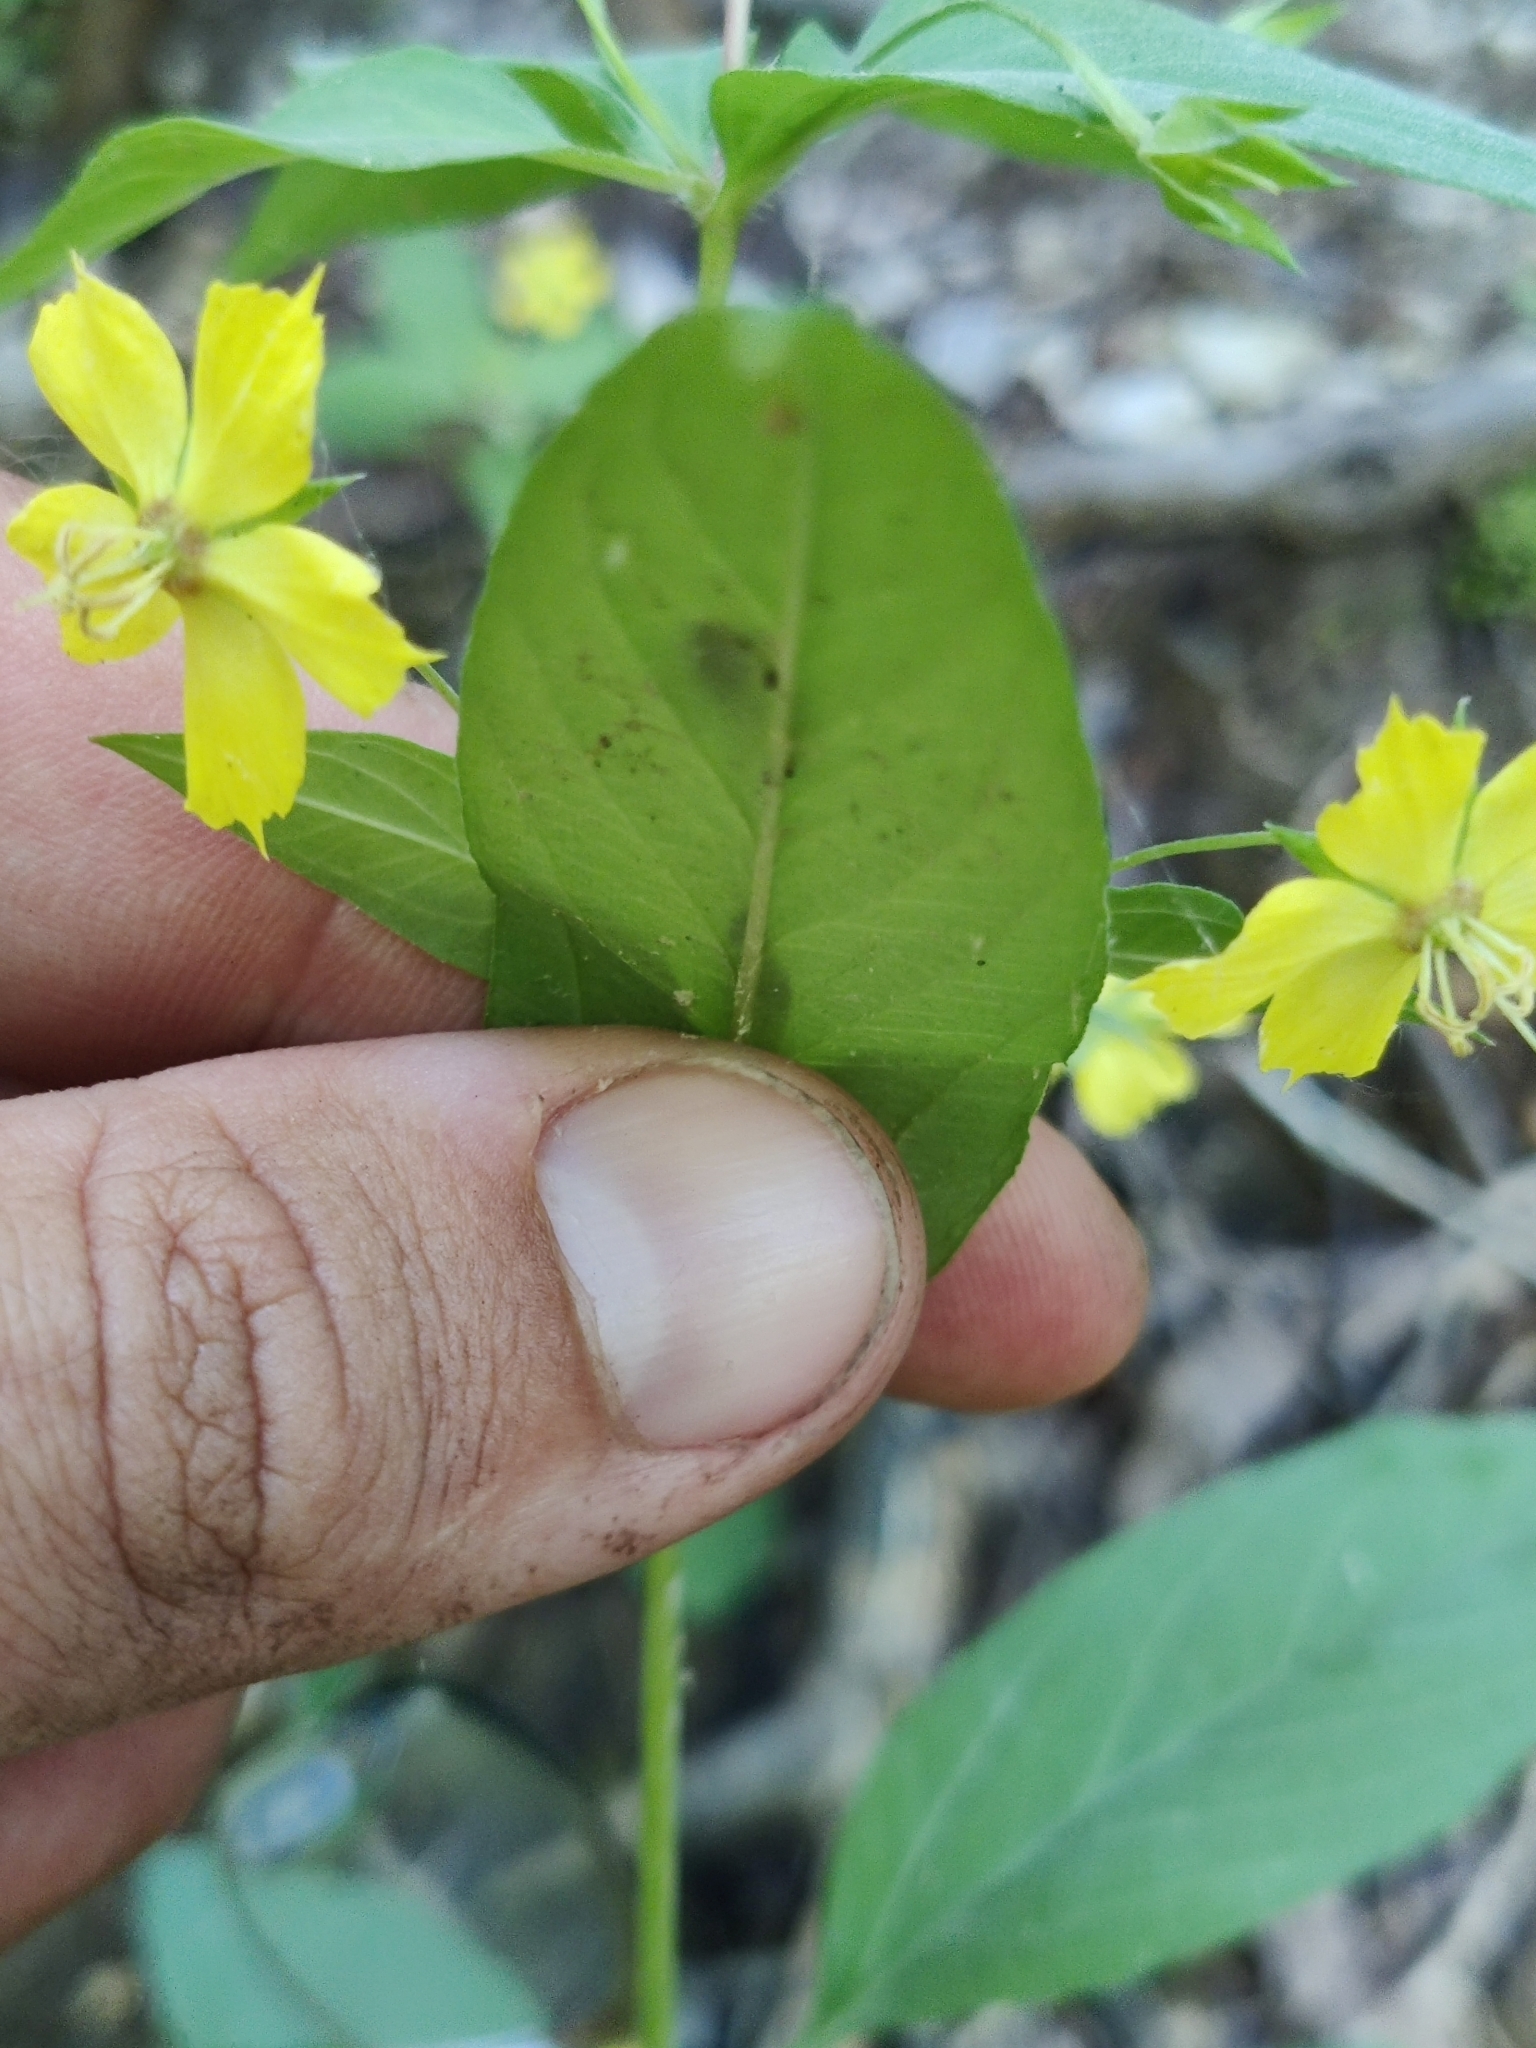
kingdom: Plantae
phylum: Tracheophyta
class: Magnoliopsida
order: Ericales
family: Primulaceae
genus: Lysimachia
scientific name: Lysimachia quadrifolia
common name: Whorled loosestrife
